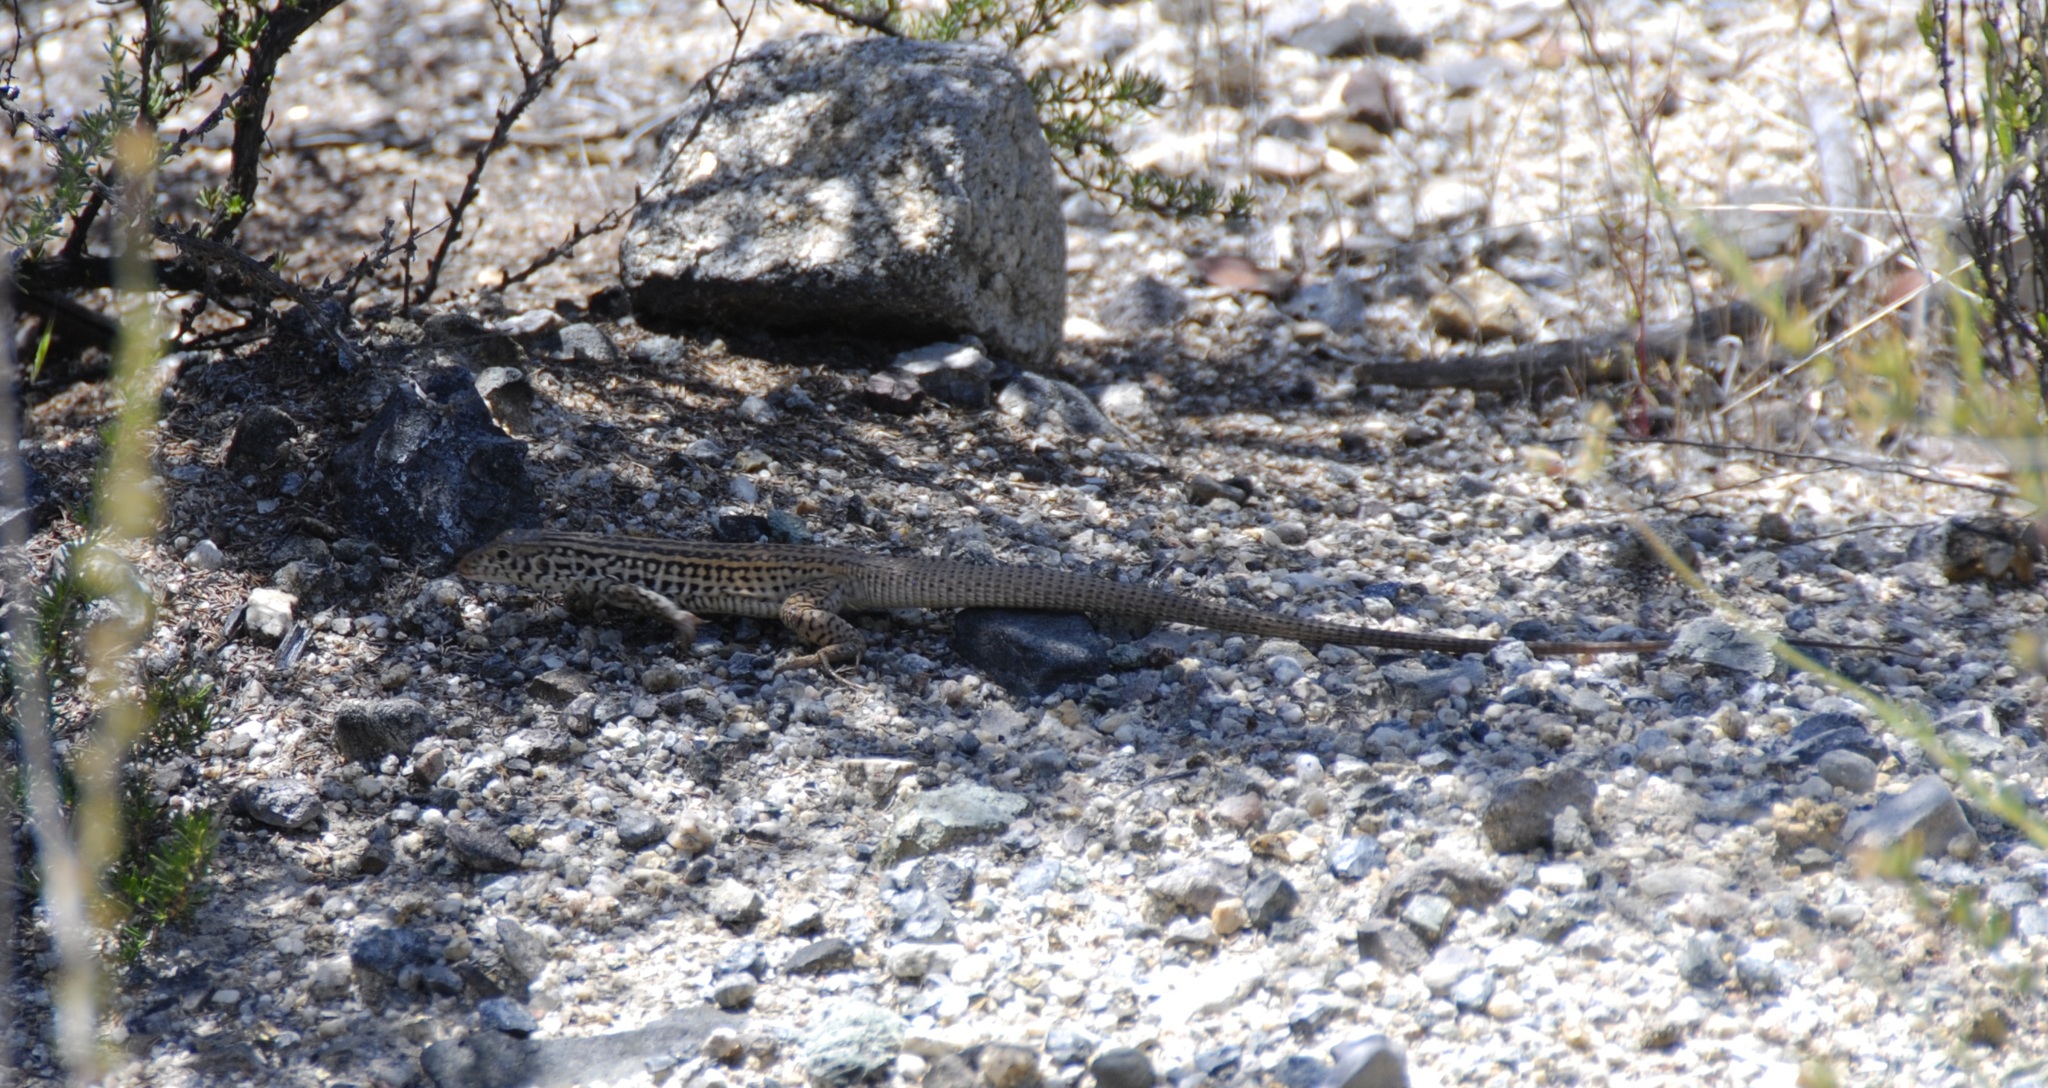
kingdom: Animalia
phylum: Chordata
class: Squamata
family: Teiidae
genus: Aspidoscelis
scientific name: Aspidoscelis tigris
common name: Tiger whiptail
